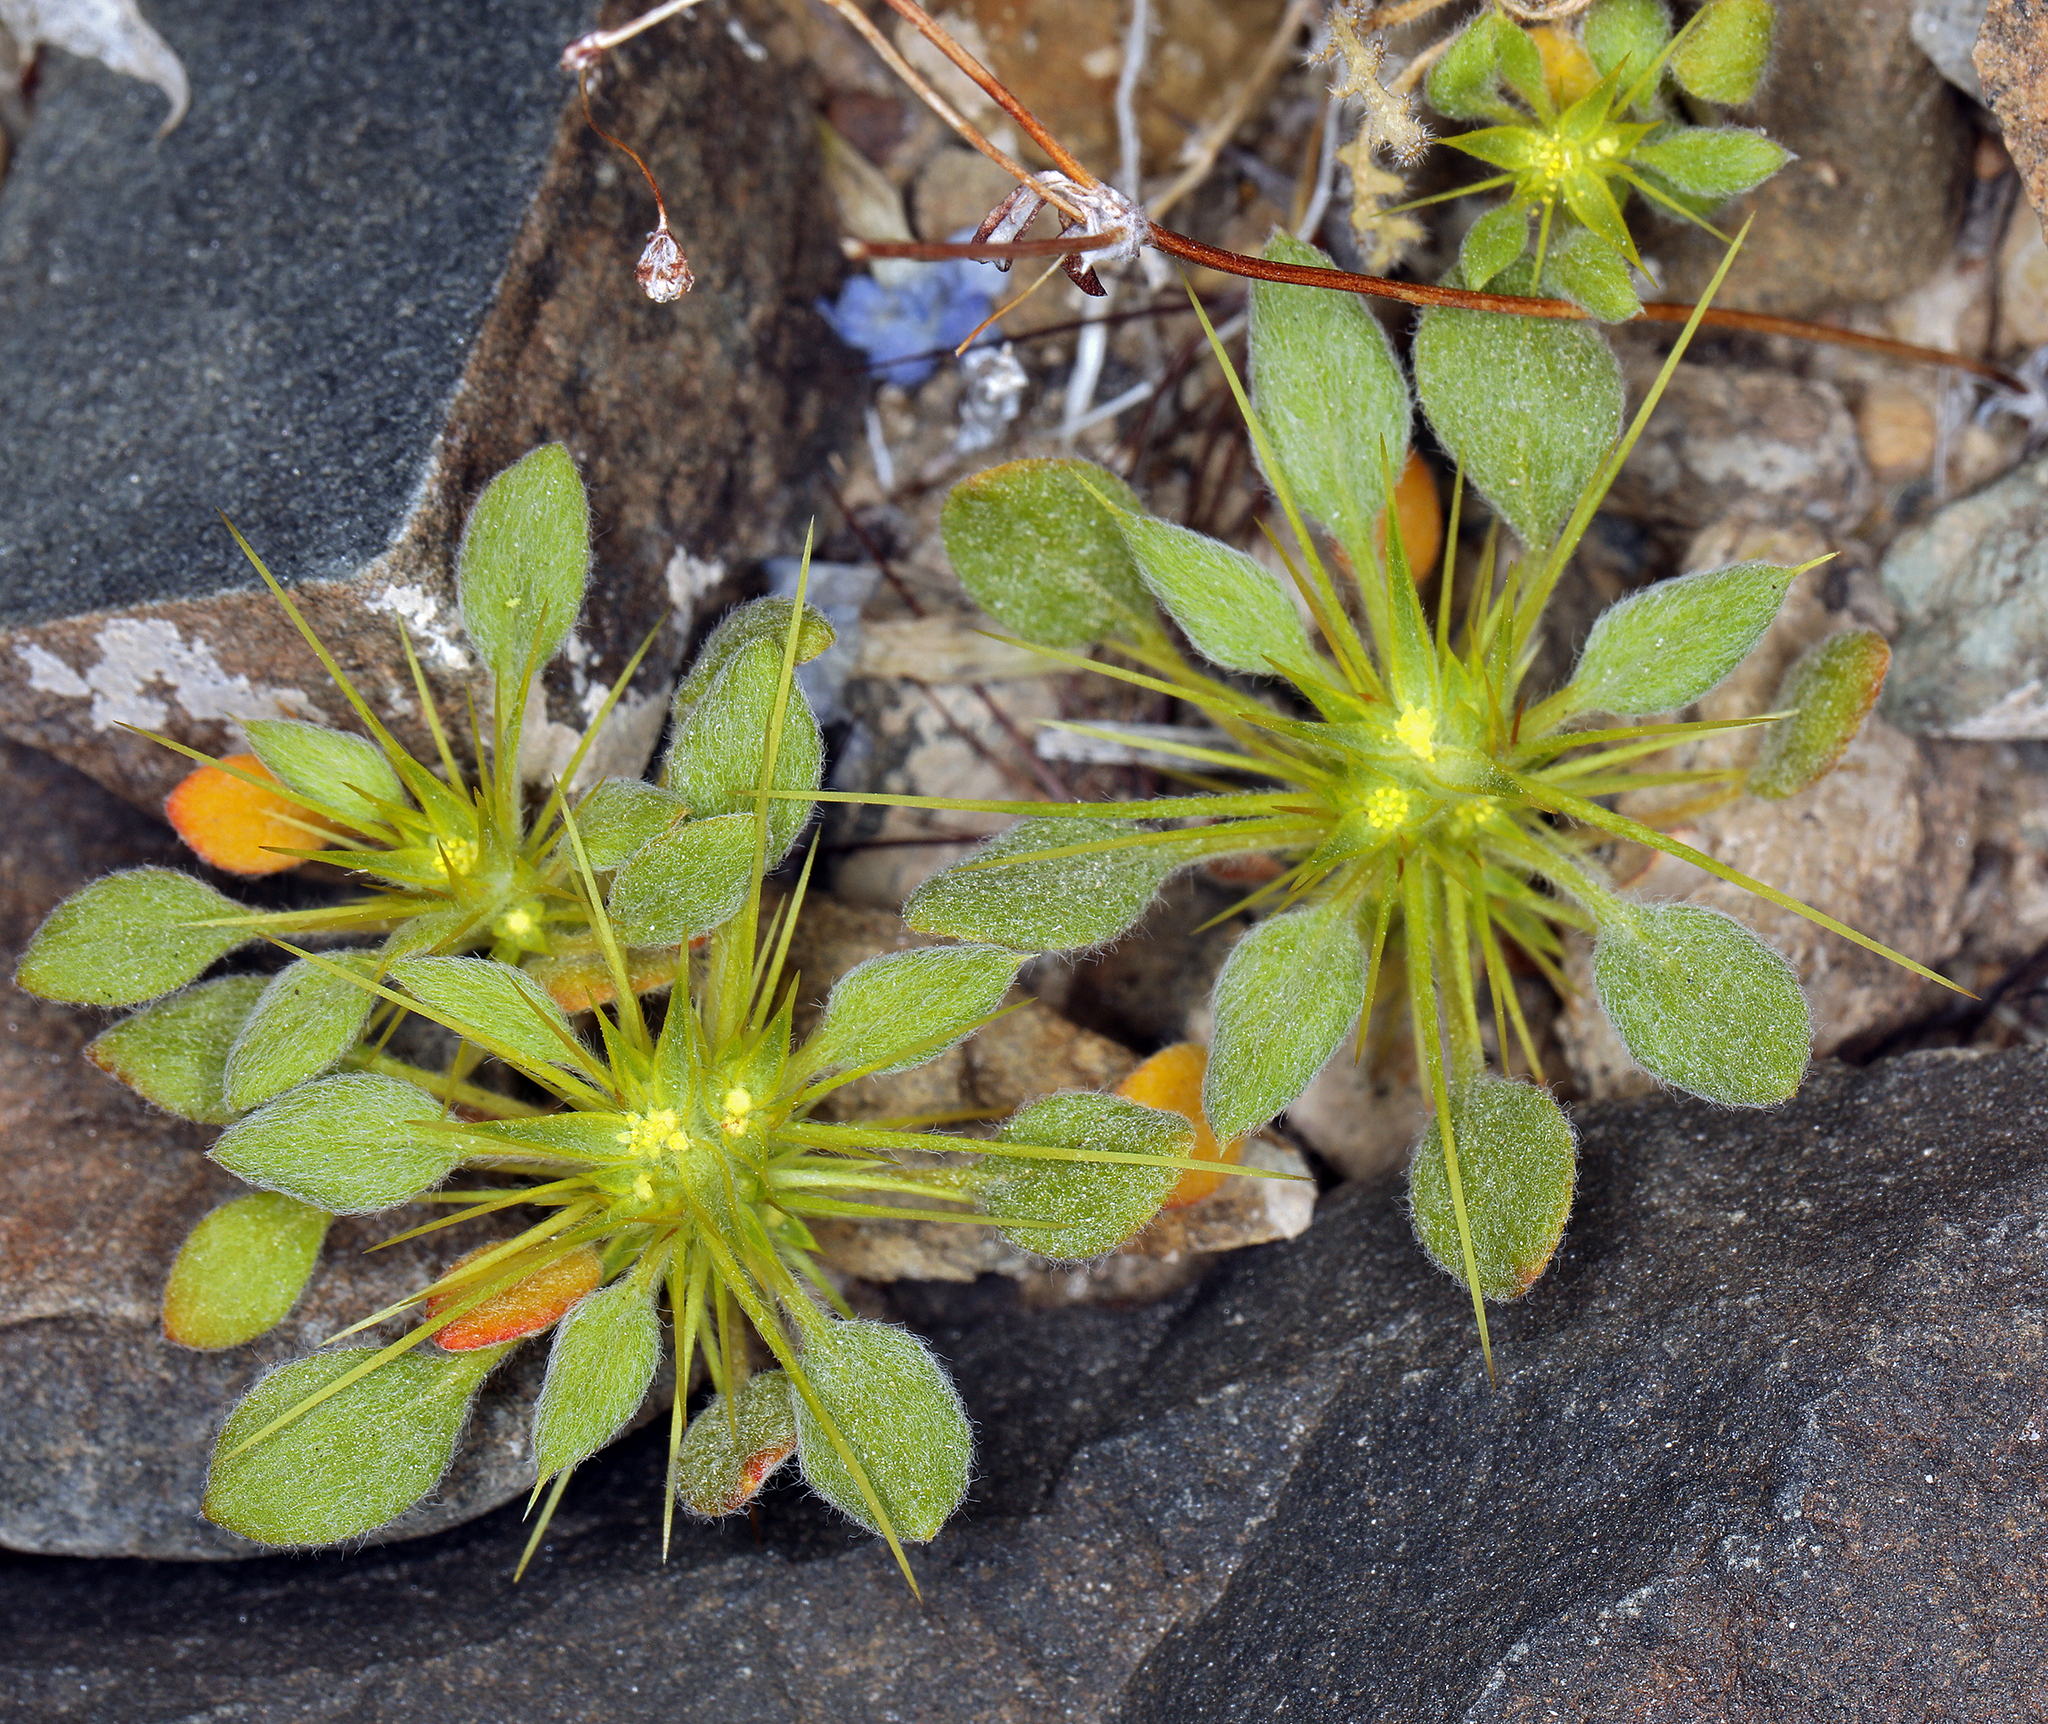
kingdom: Plantae
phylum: Tracheophyta
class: Magnoliopsida
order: Caryophyllales
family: Polygonaceae
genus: Chorizanthe
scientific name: Chorizanthe rigida
